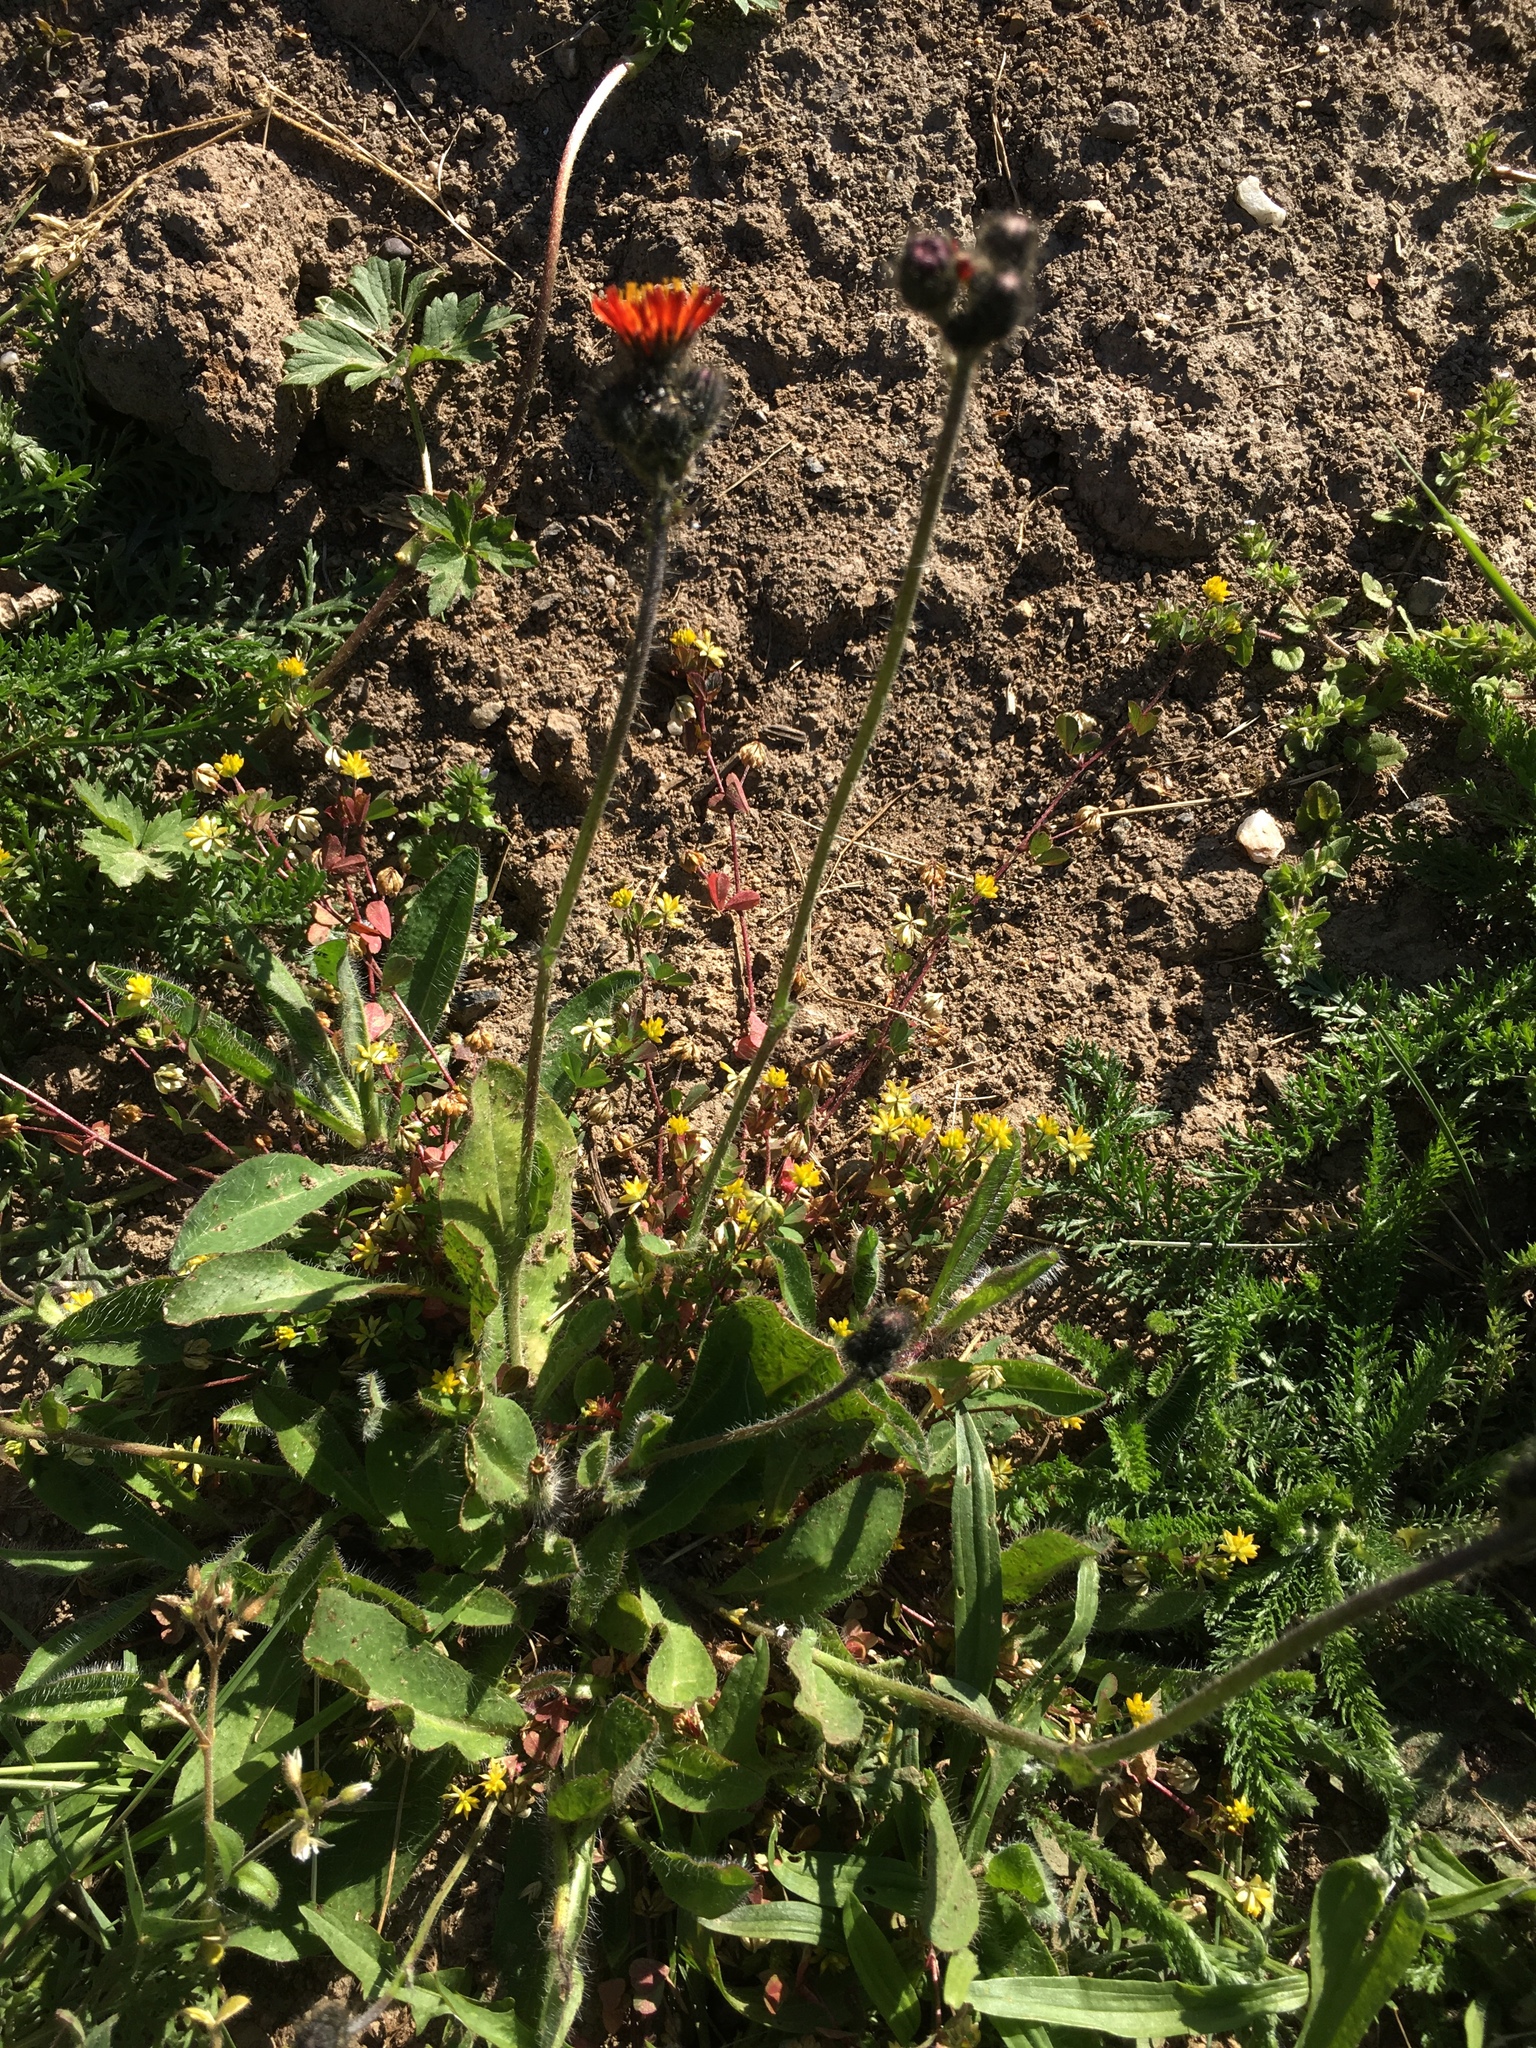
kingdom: Plantae
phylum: Tracheophyta
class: Magnoliopsida
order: Asterales
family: Asteraceae
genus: Pilosella
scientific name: Pilosella aurantiaca
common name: Fox-and-cubs
